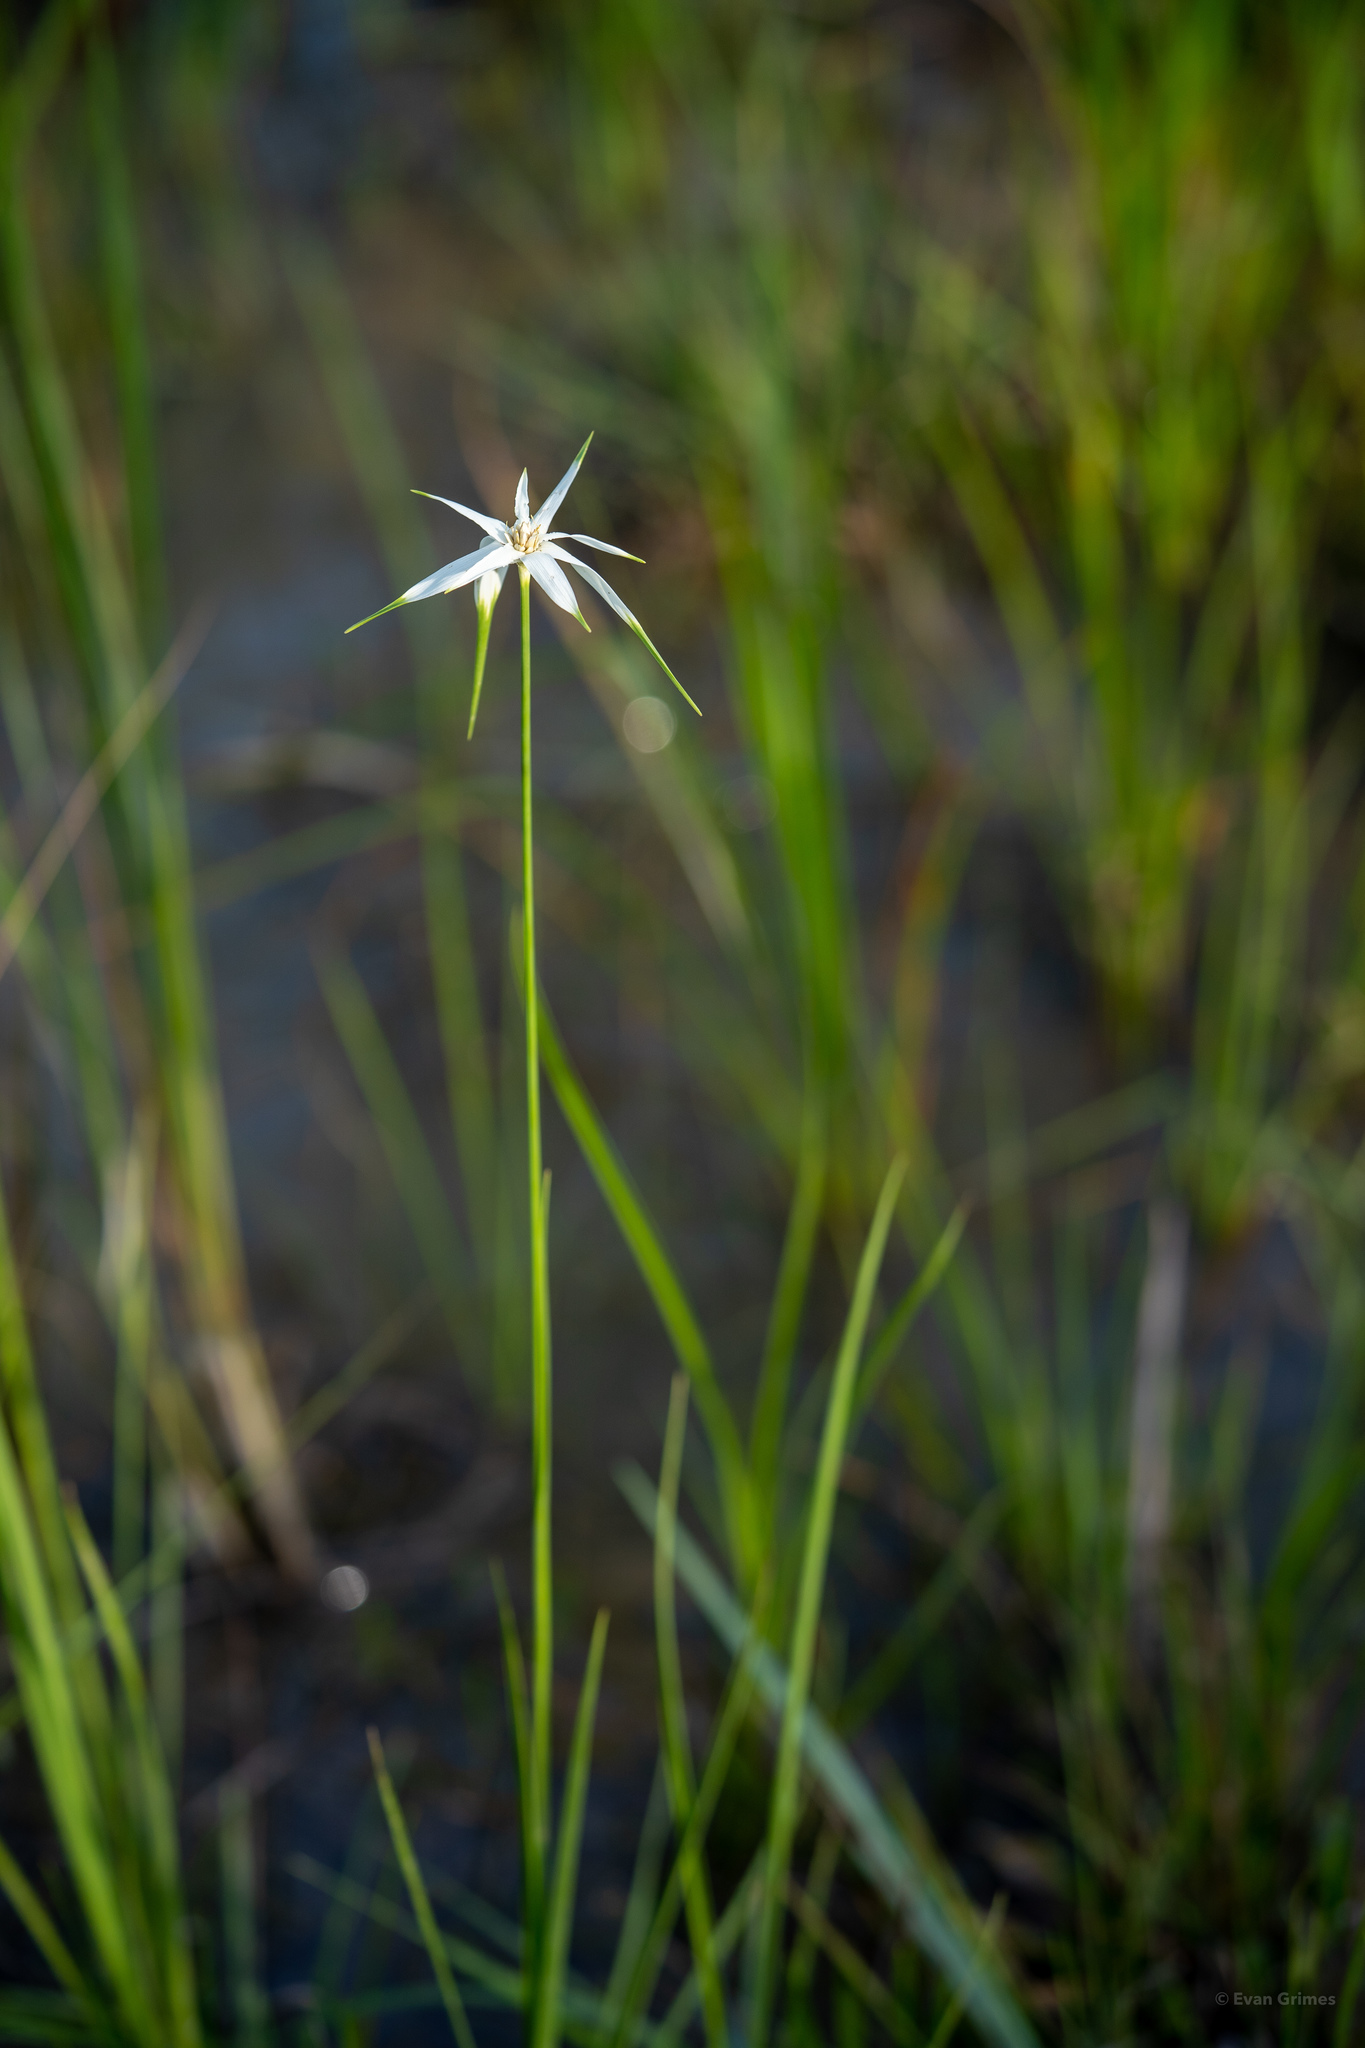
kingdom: Plantae
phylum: Tracheophyta
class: Liliopsida
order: Poales
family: Cyperaceae
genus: Rhynchospora
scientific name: Rhynchospora colorata
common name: Star sedge
